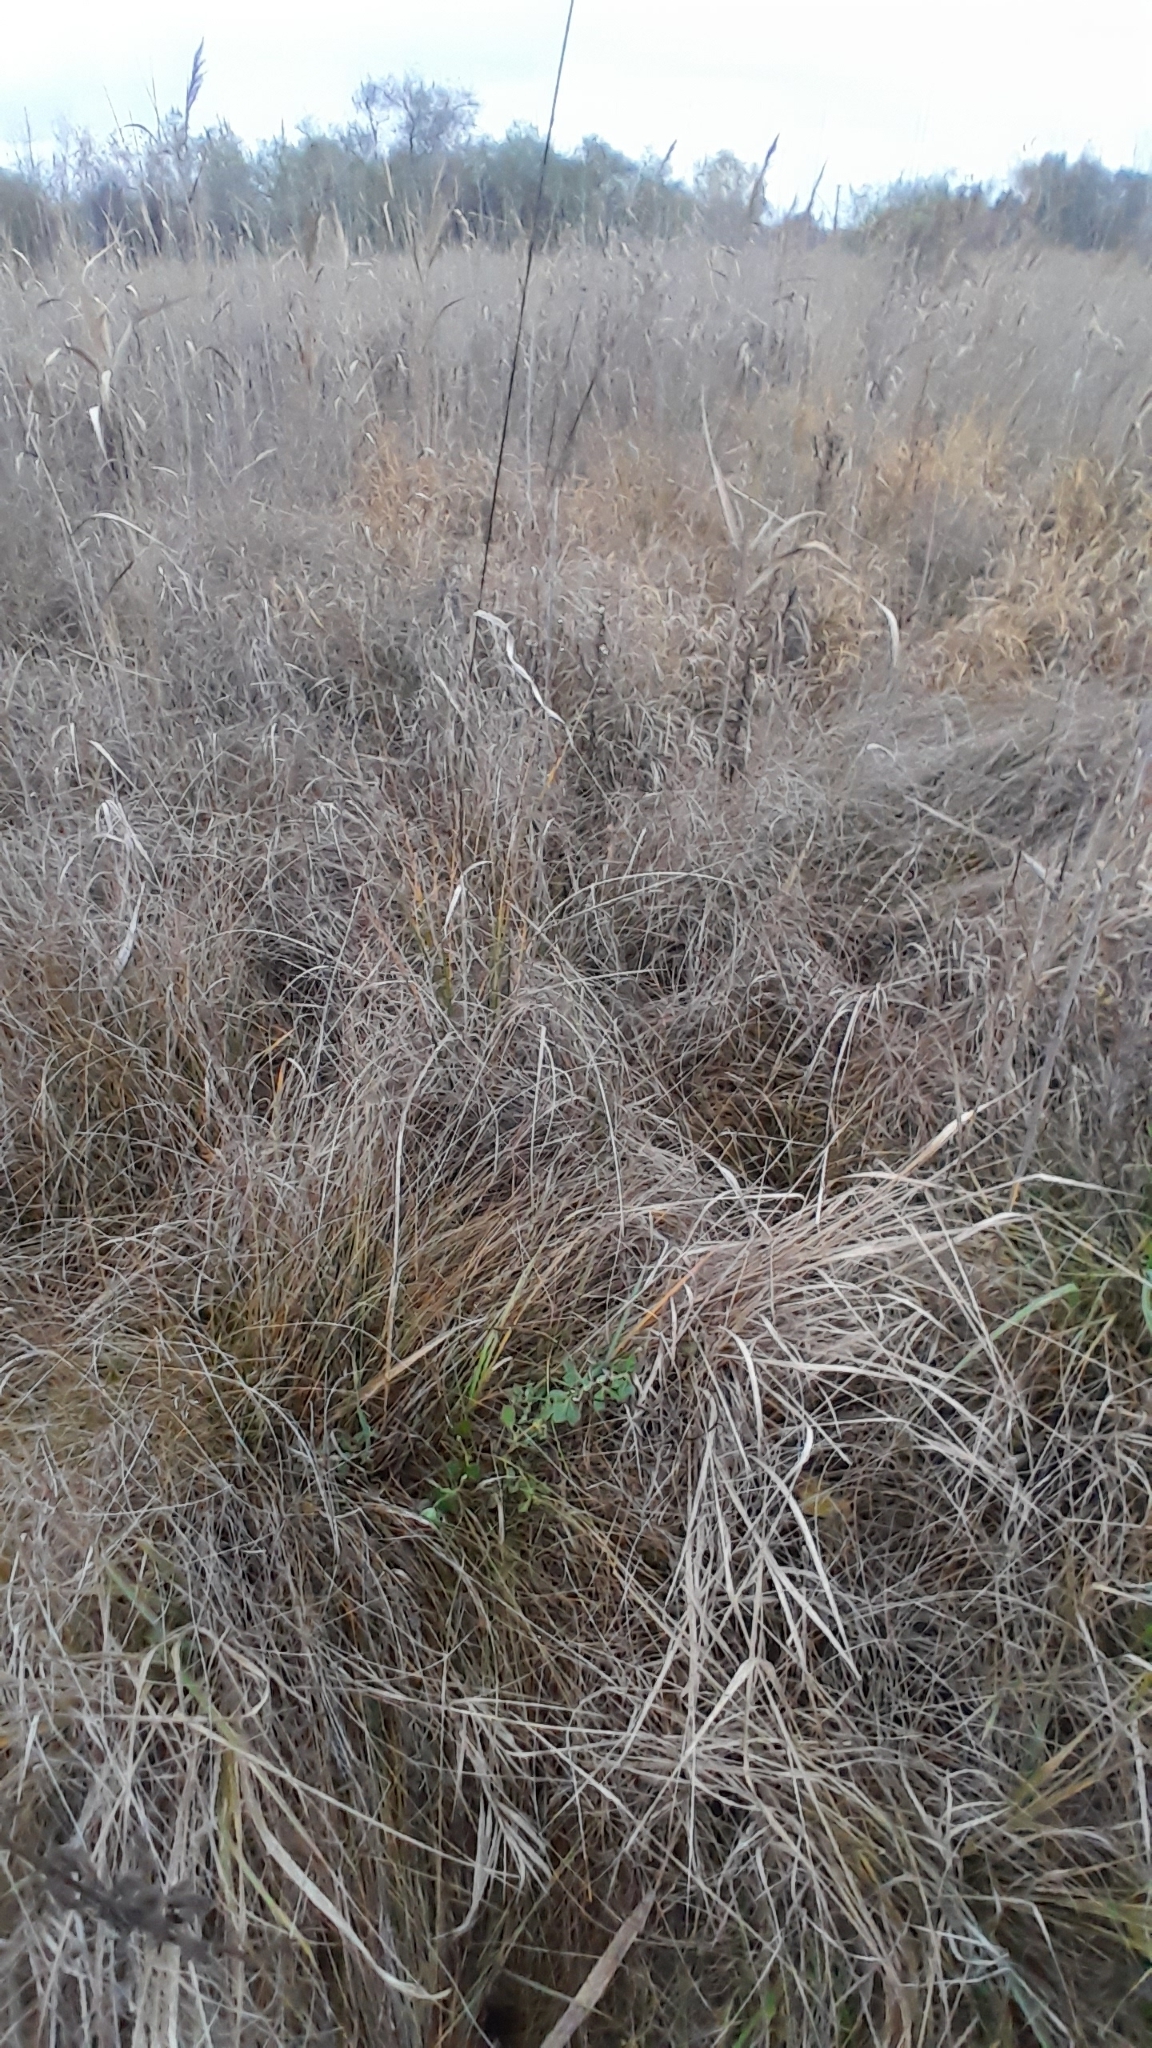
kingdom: Plantae
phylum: Tracheophyta
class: Magnoliopsida
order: Fabales
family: Fabaceae
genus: Lotus
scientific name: Lotus maritimus
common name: Dragon's-teeth
